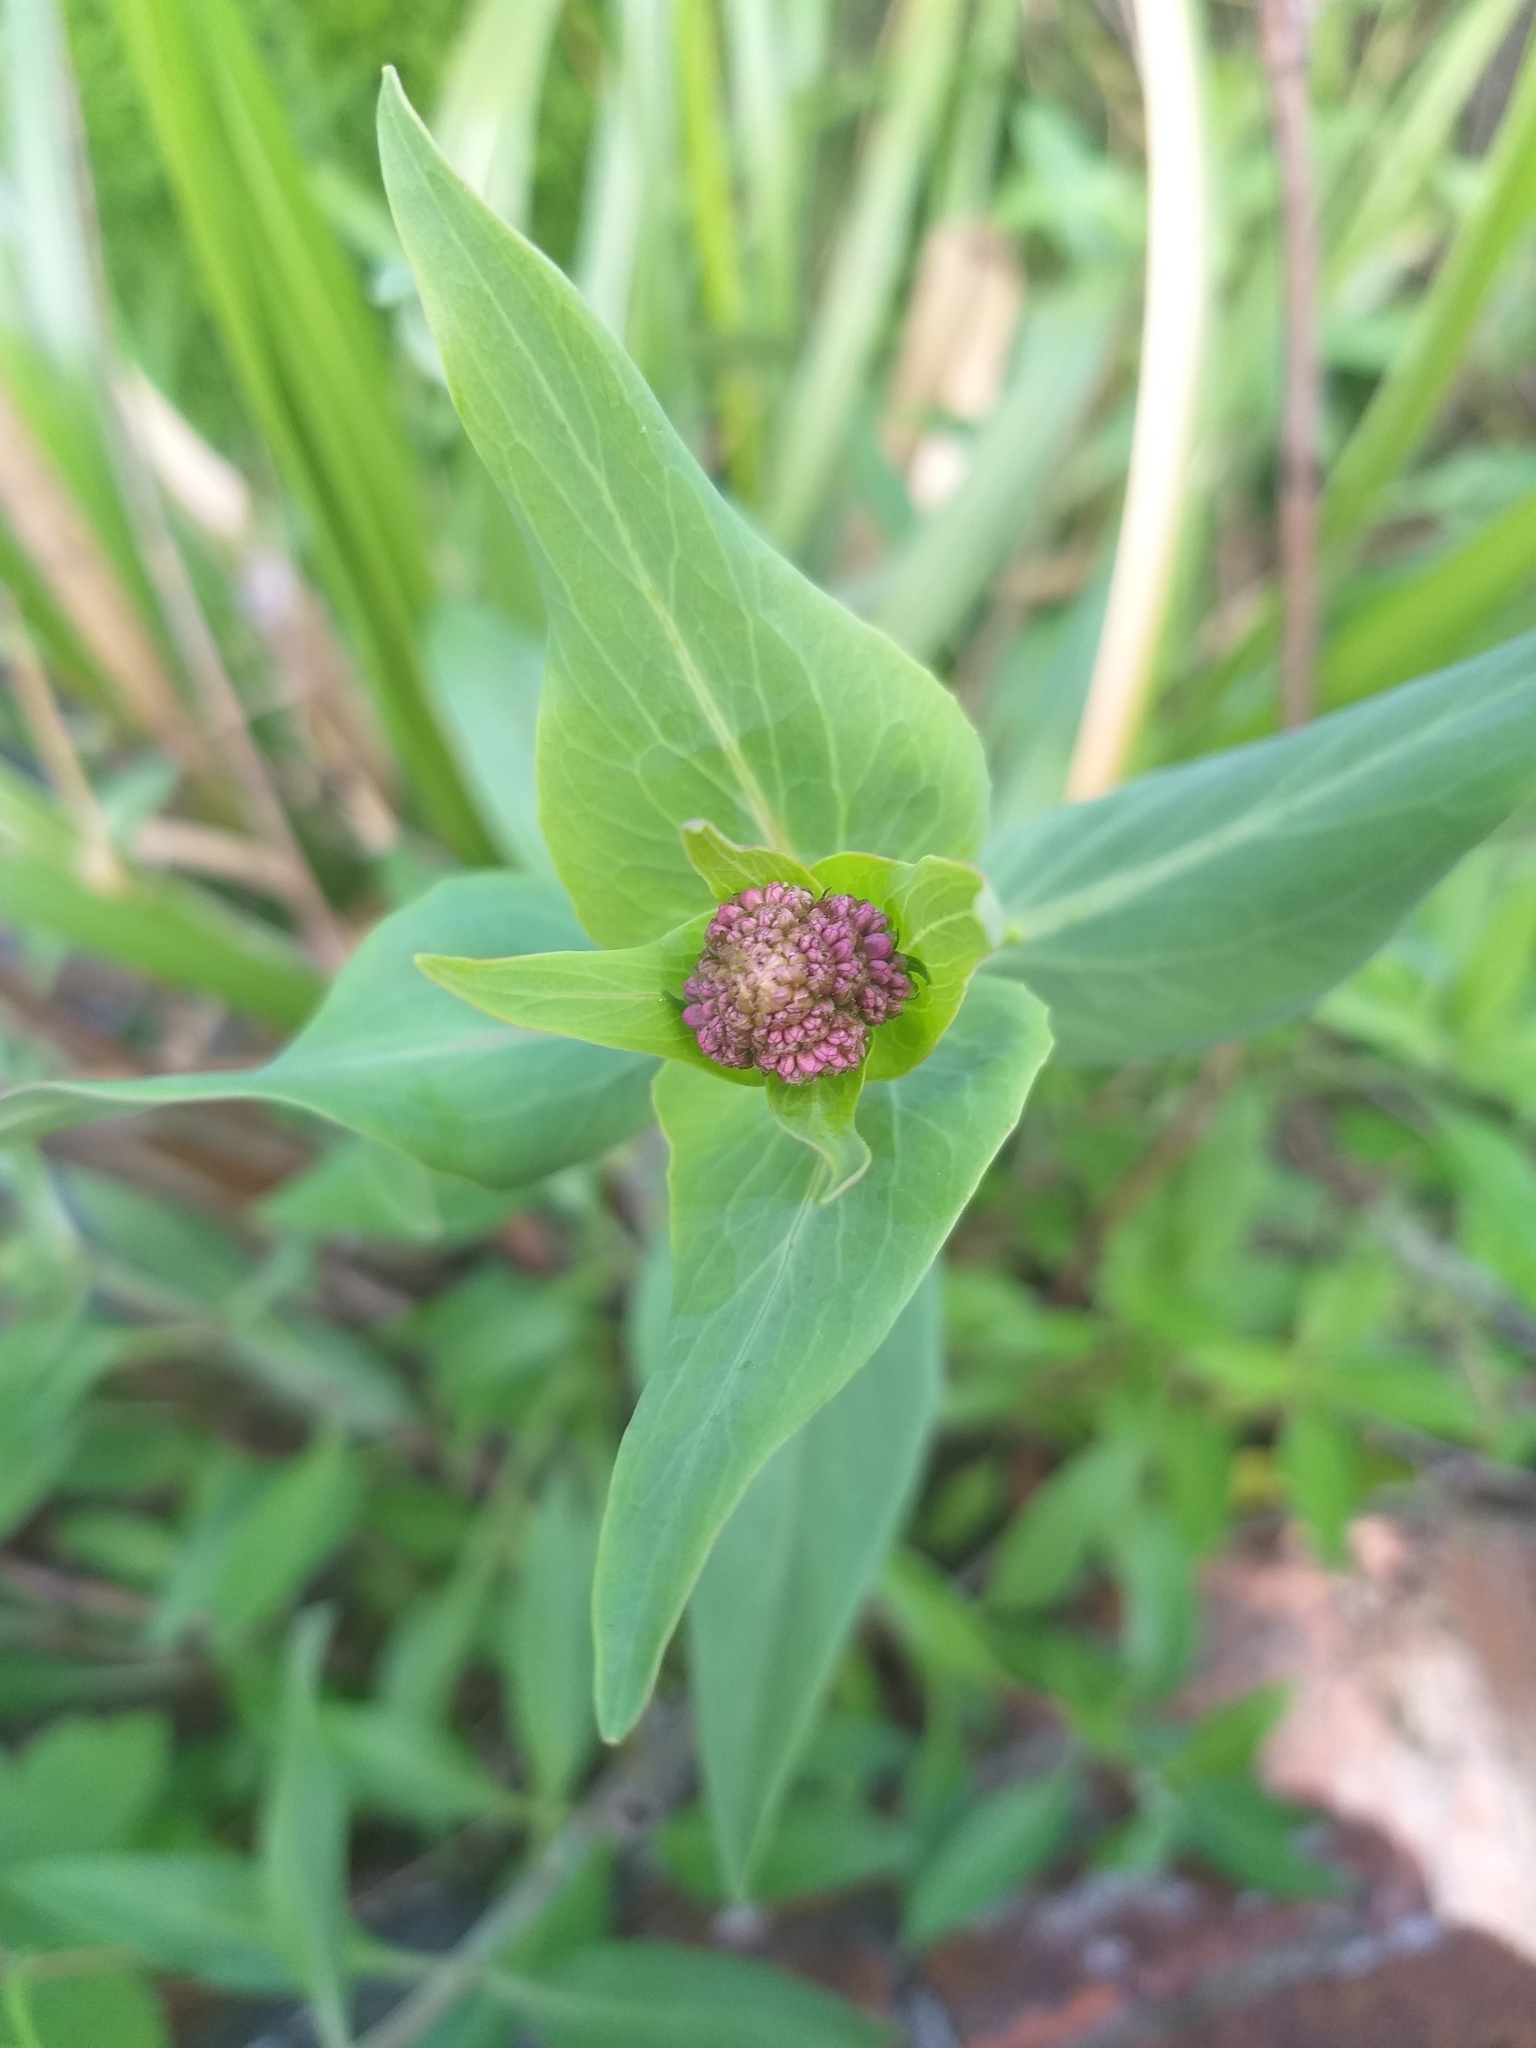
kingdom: Plantae
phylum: Tracheophyta
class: Magnoliopsida
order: Dipsacales
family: Caprifoliaceae
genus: Centranthus
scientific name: Centranthus ruber
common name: Red valerian
